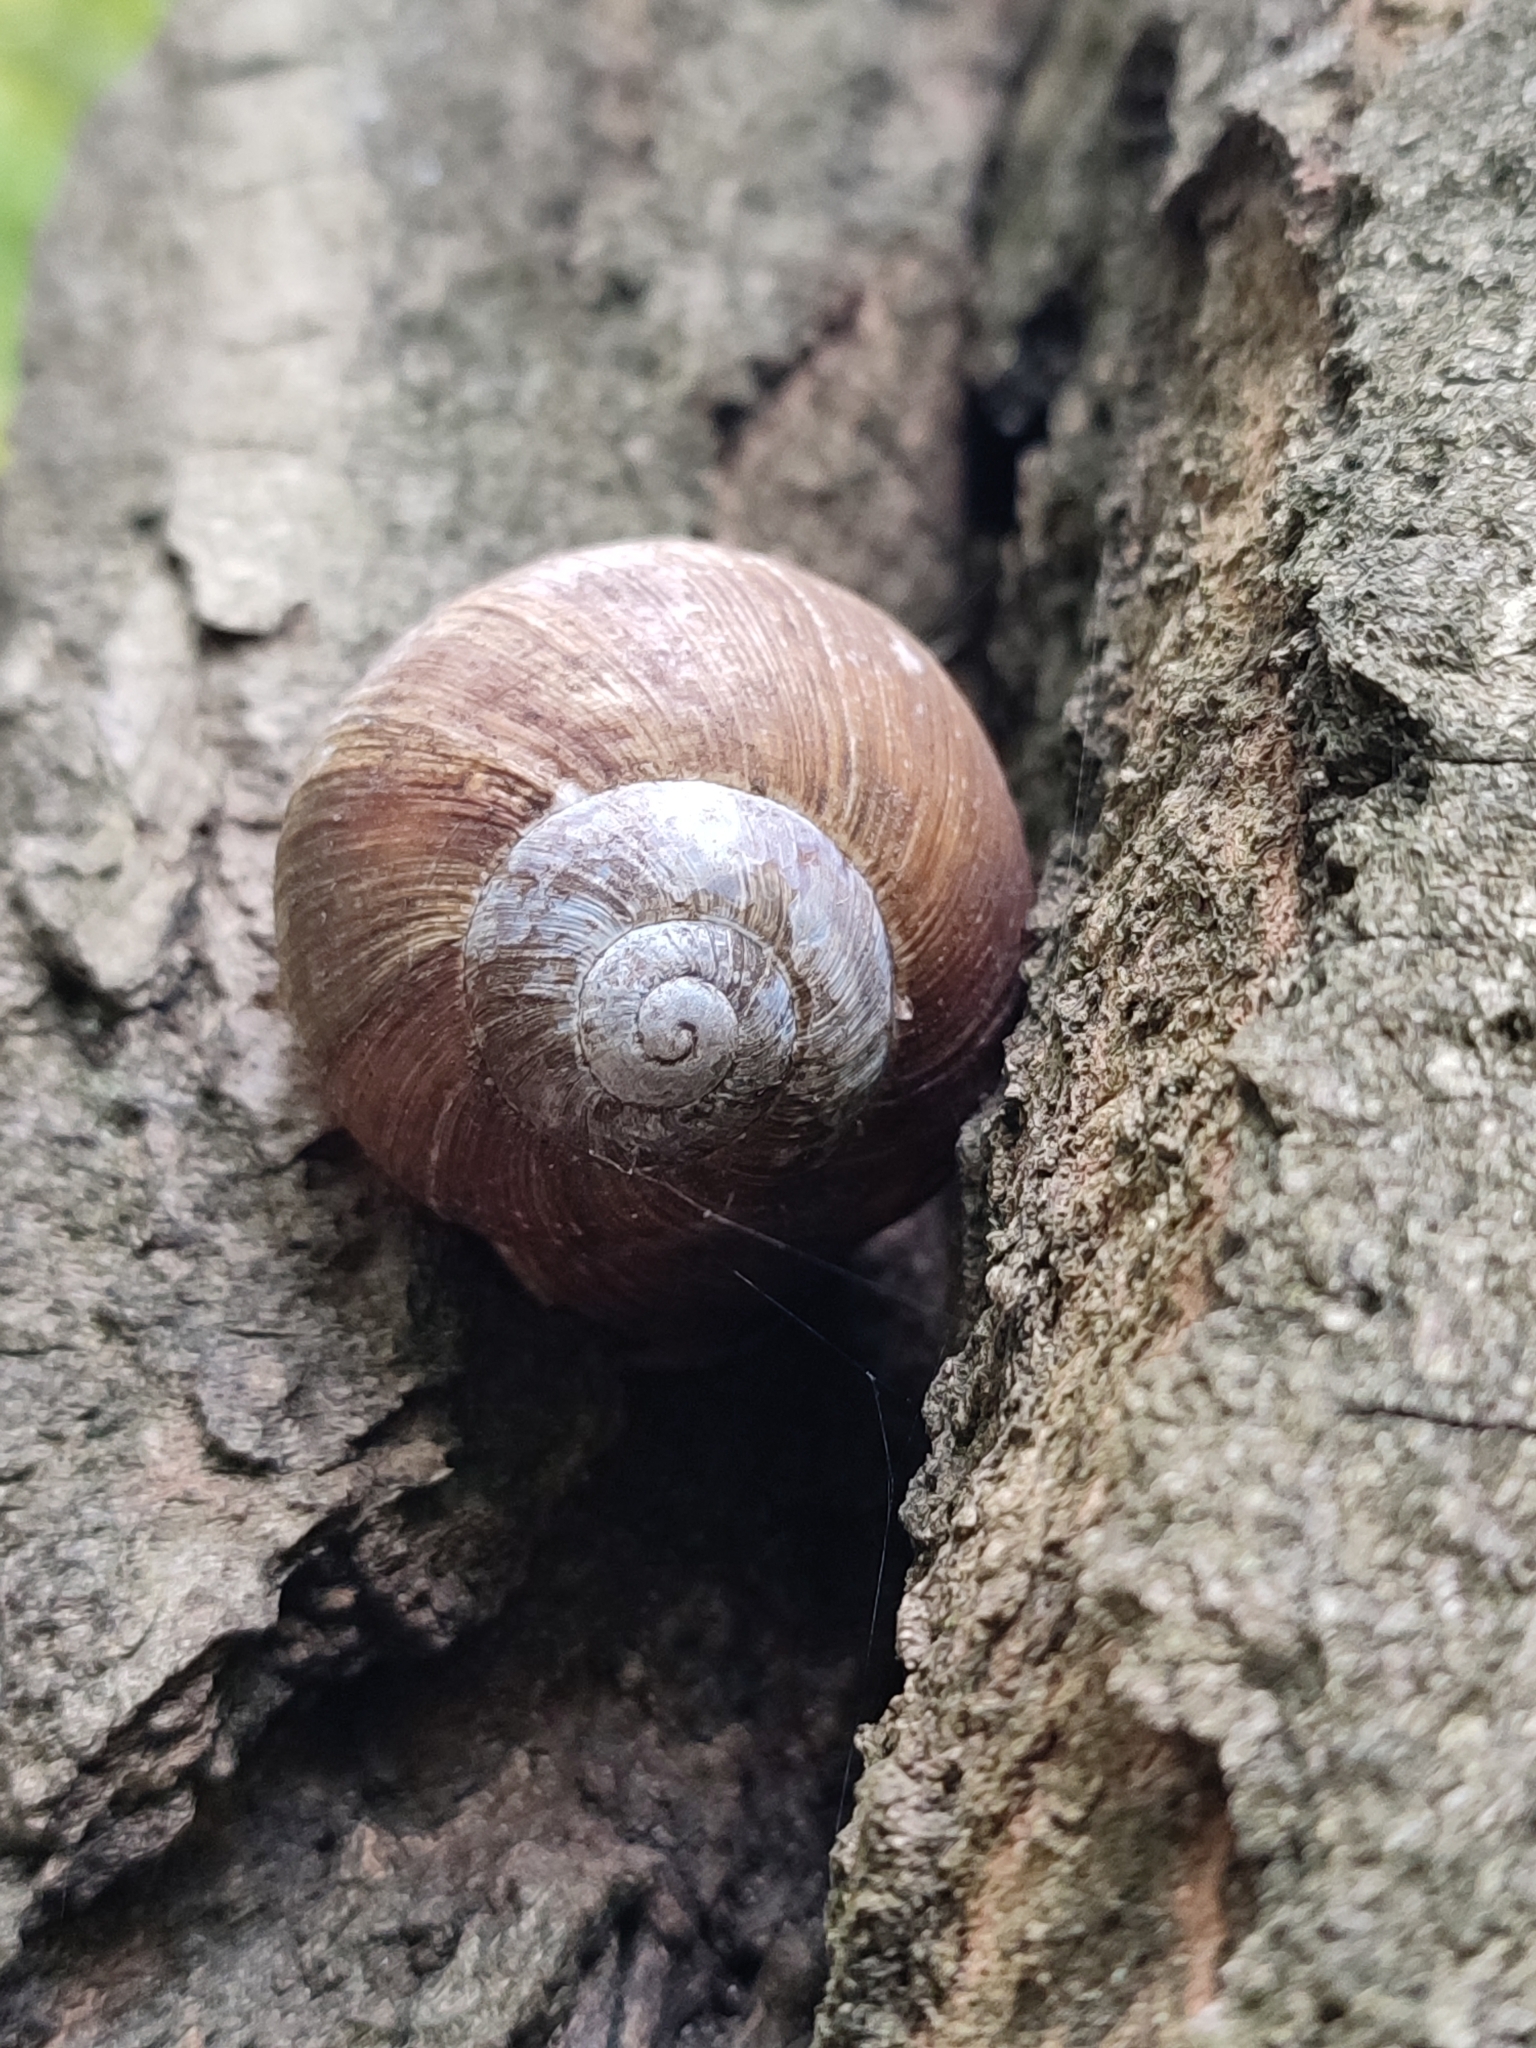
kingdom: Animalia
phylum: Mollusca
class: Gastropoda
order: Stylommatophora
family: Helicidae
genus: Helix
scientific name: Helix pomatia
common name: Roman snail
